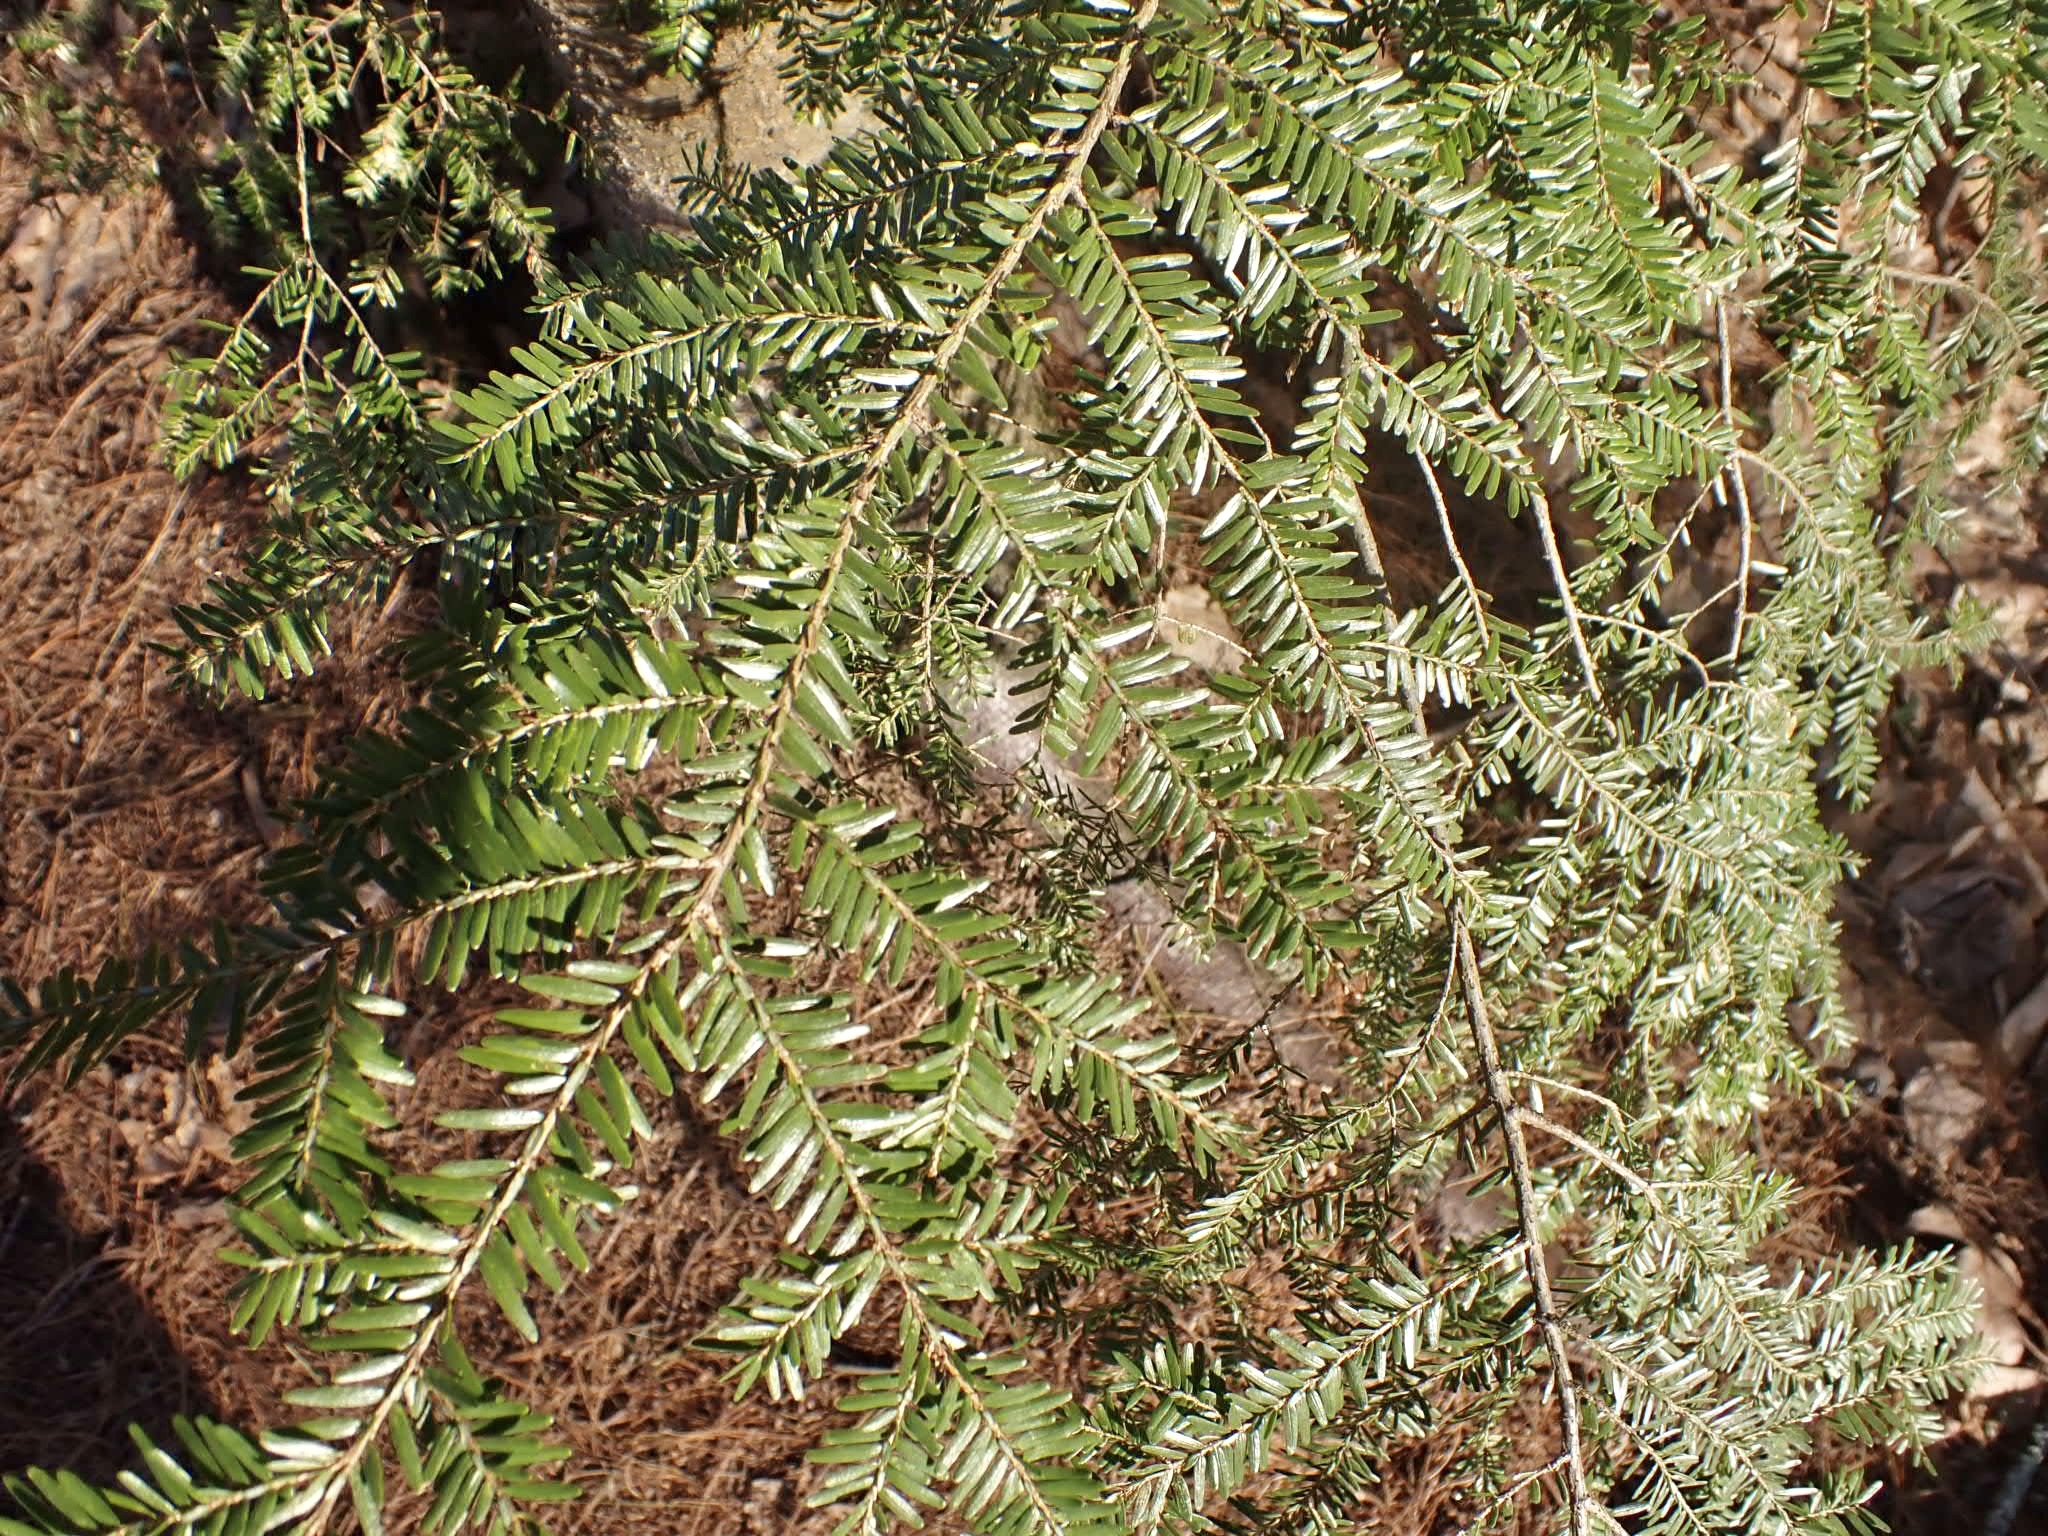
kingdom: Plantae
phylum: Tracheophyta
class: Pinopsida
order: Pinales
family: Pinaceae
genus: Tsuga
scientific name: Tsuga canadensis
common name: Eastern hemlock
